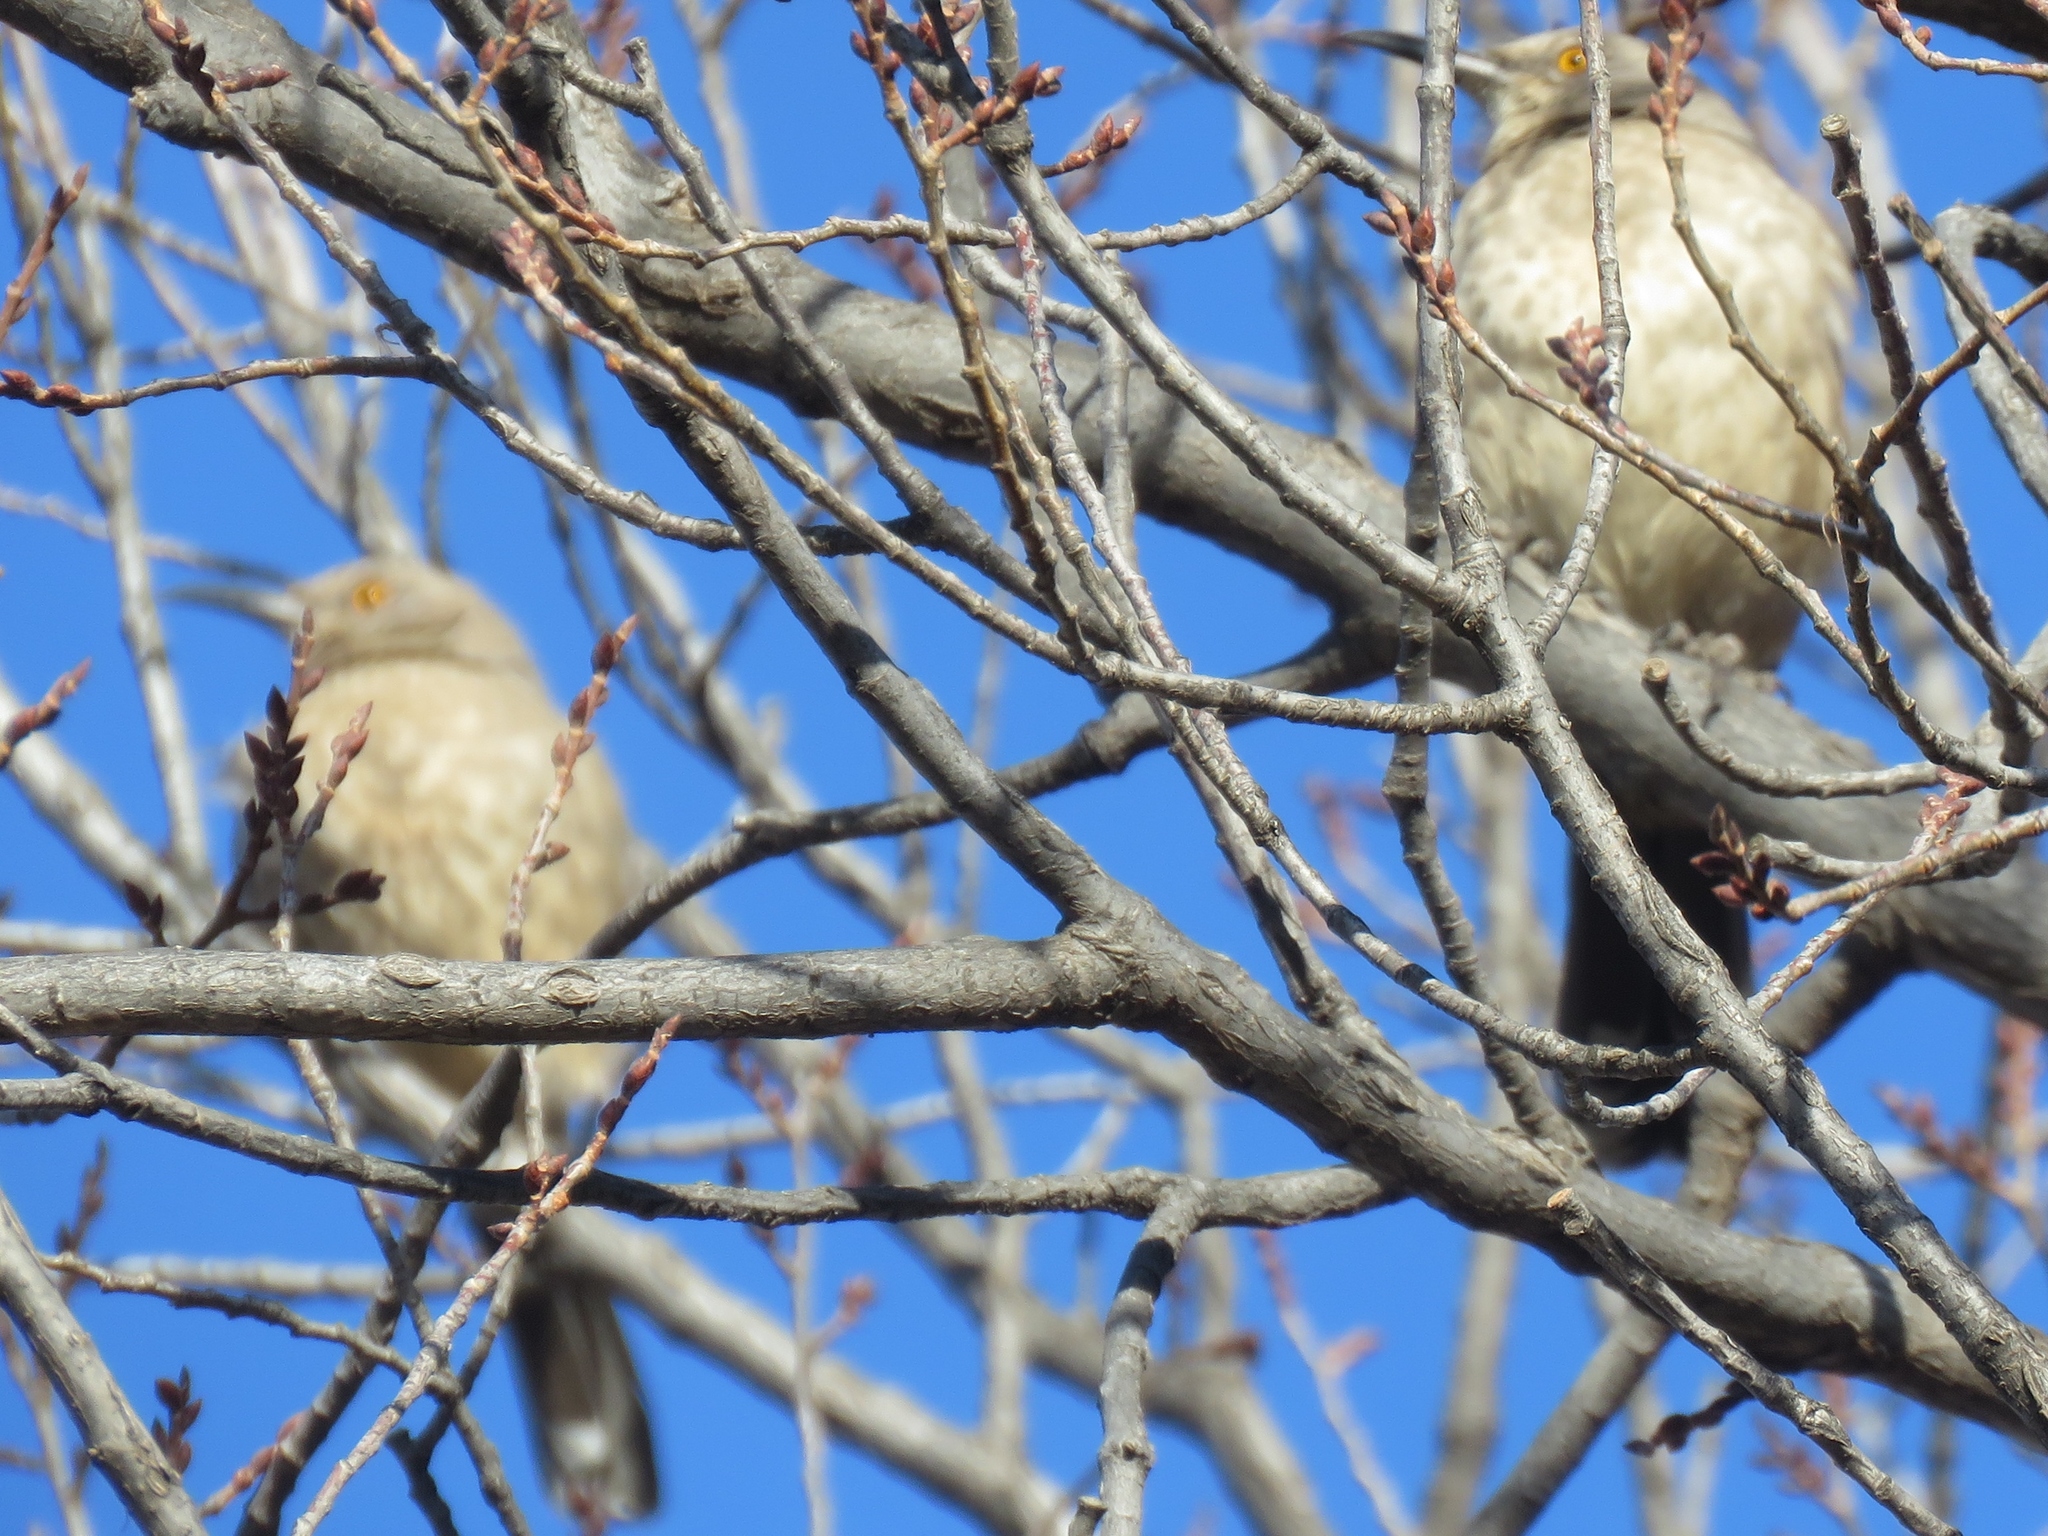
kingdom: Animalia
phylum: Chordata
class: Aves
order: Passeriformes
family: Mimidae
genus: Toxostoma
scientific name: Toxostoma curvirostre
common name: Curve-billed thrasher
